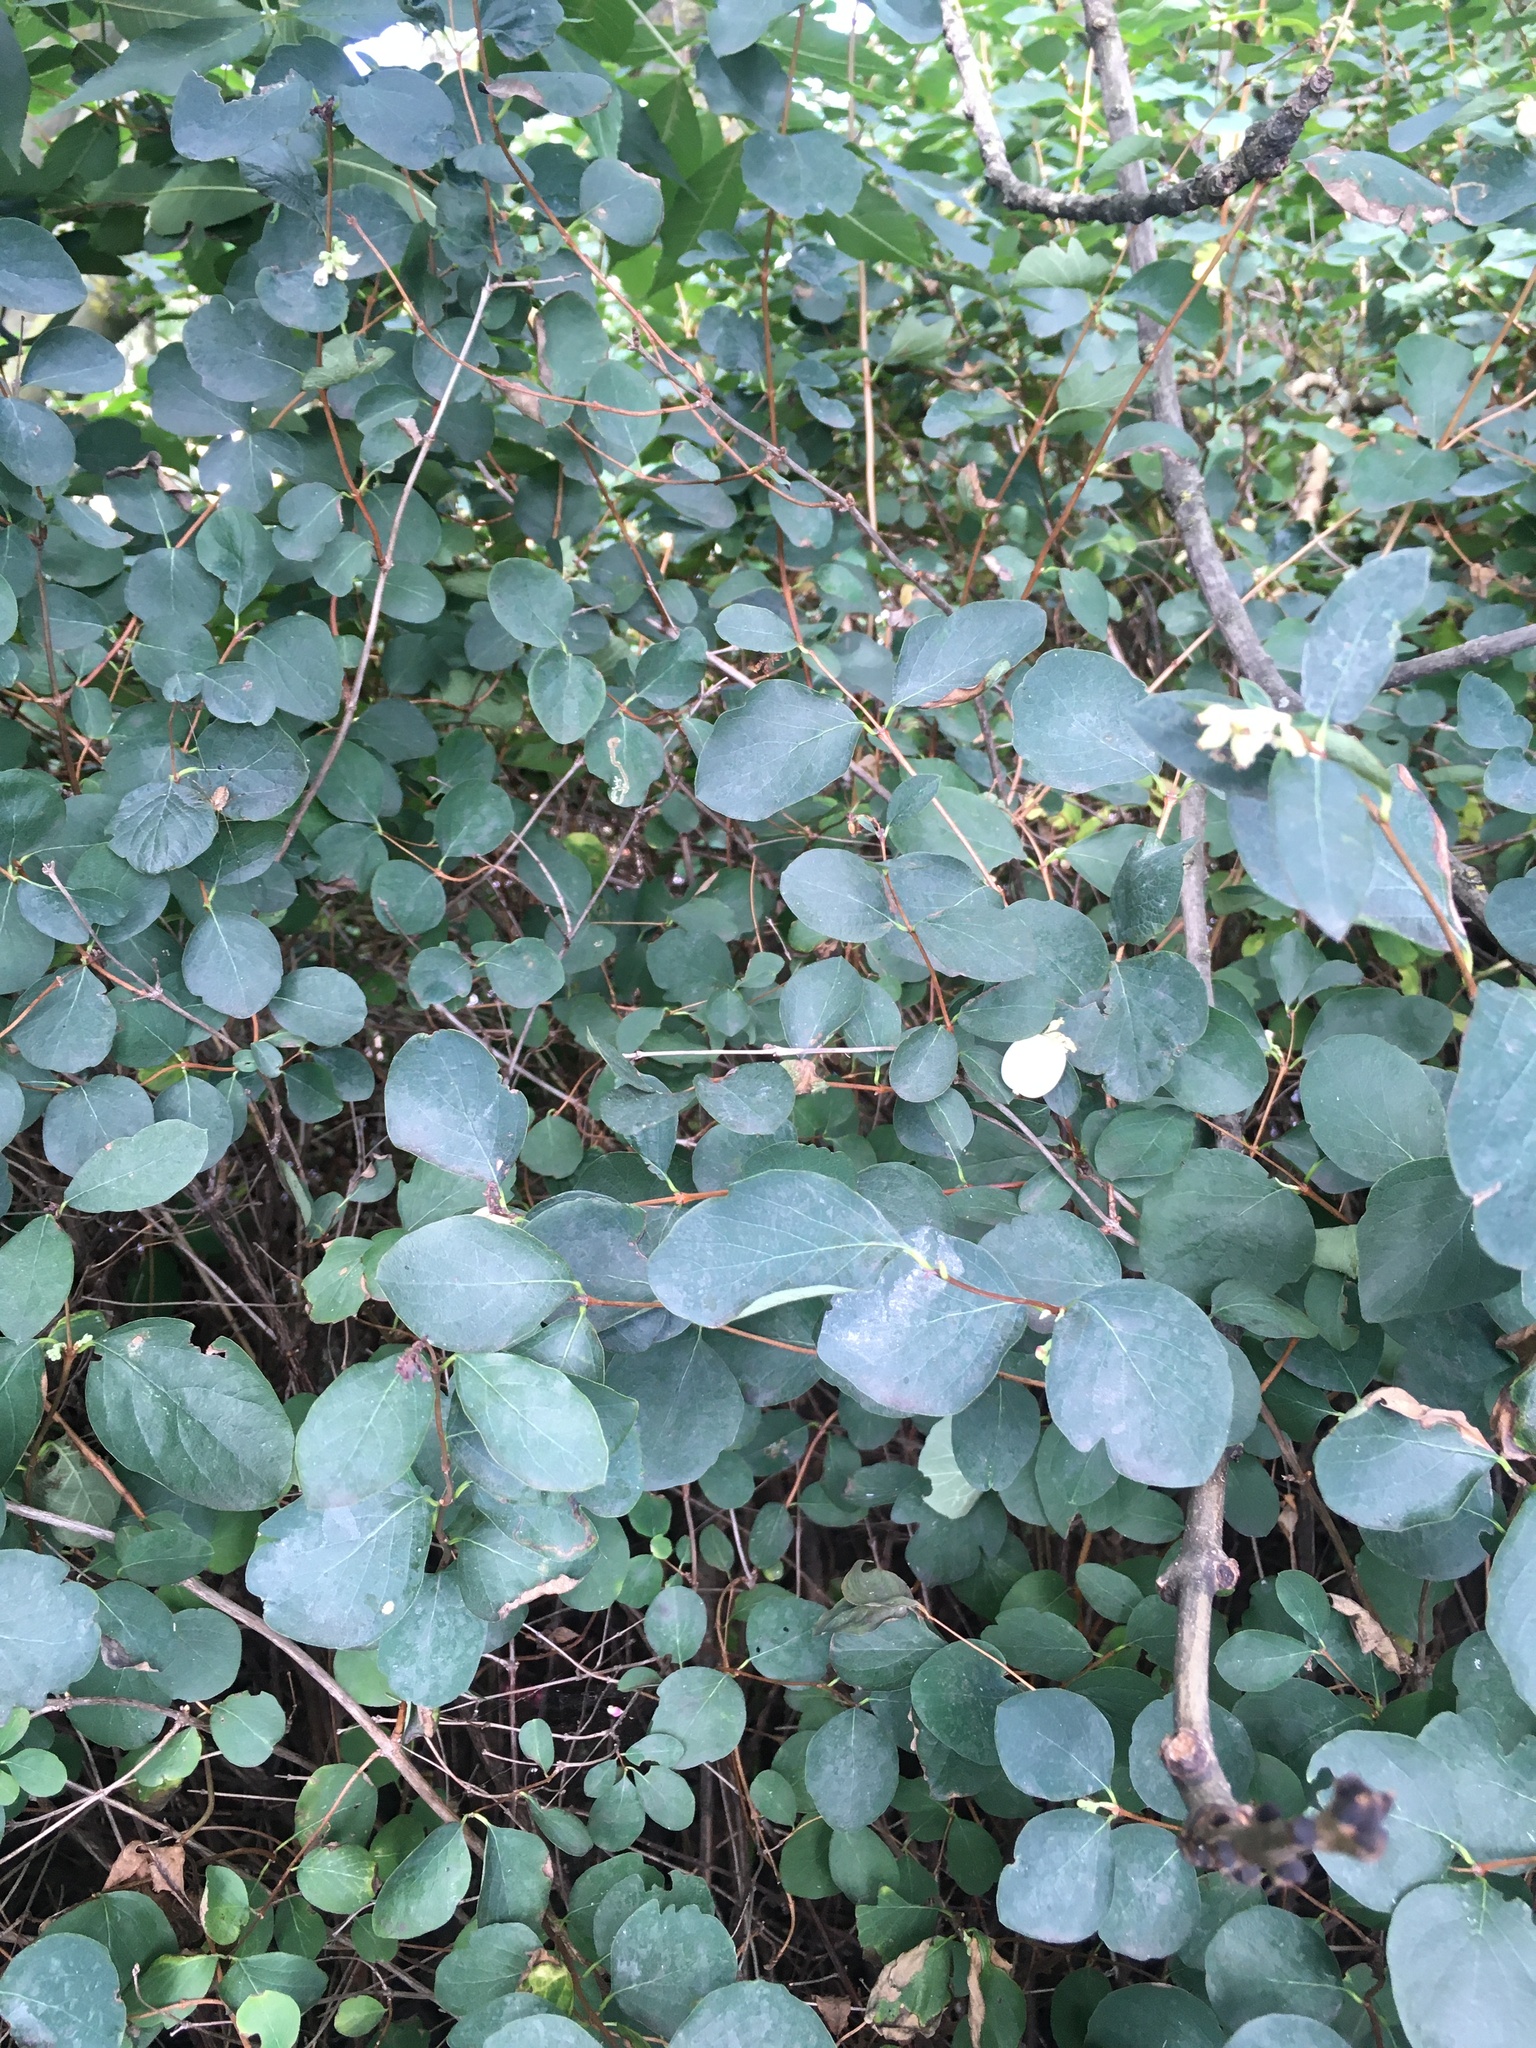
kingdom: Plantae
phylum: Tracheophyta
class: Magnoliopsida
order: Dipsacales
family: Caprifoliaceae
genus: Symphoricarpos
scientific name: Symphoricarpos albus
